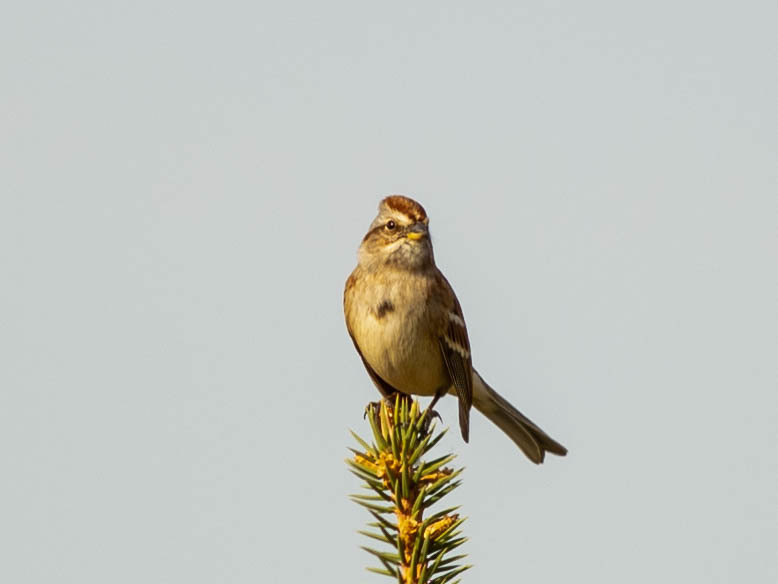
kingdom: Animalia
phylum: Chordata
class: Aves
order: Passeriformes
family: Passerellidae
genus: Spizelloides
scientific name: Spizelloides arborea
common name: American tree sparrow
